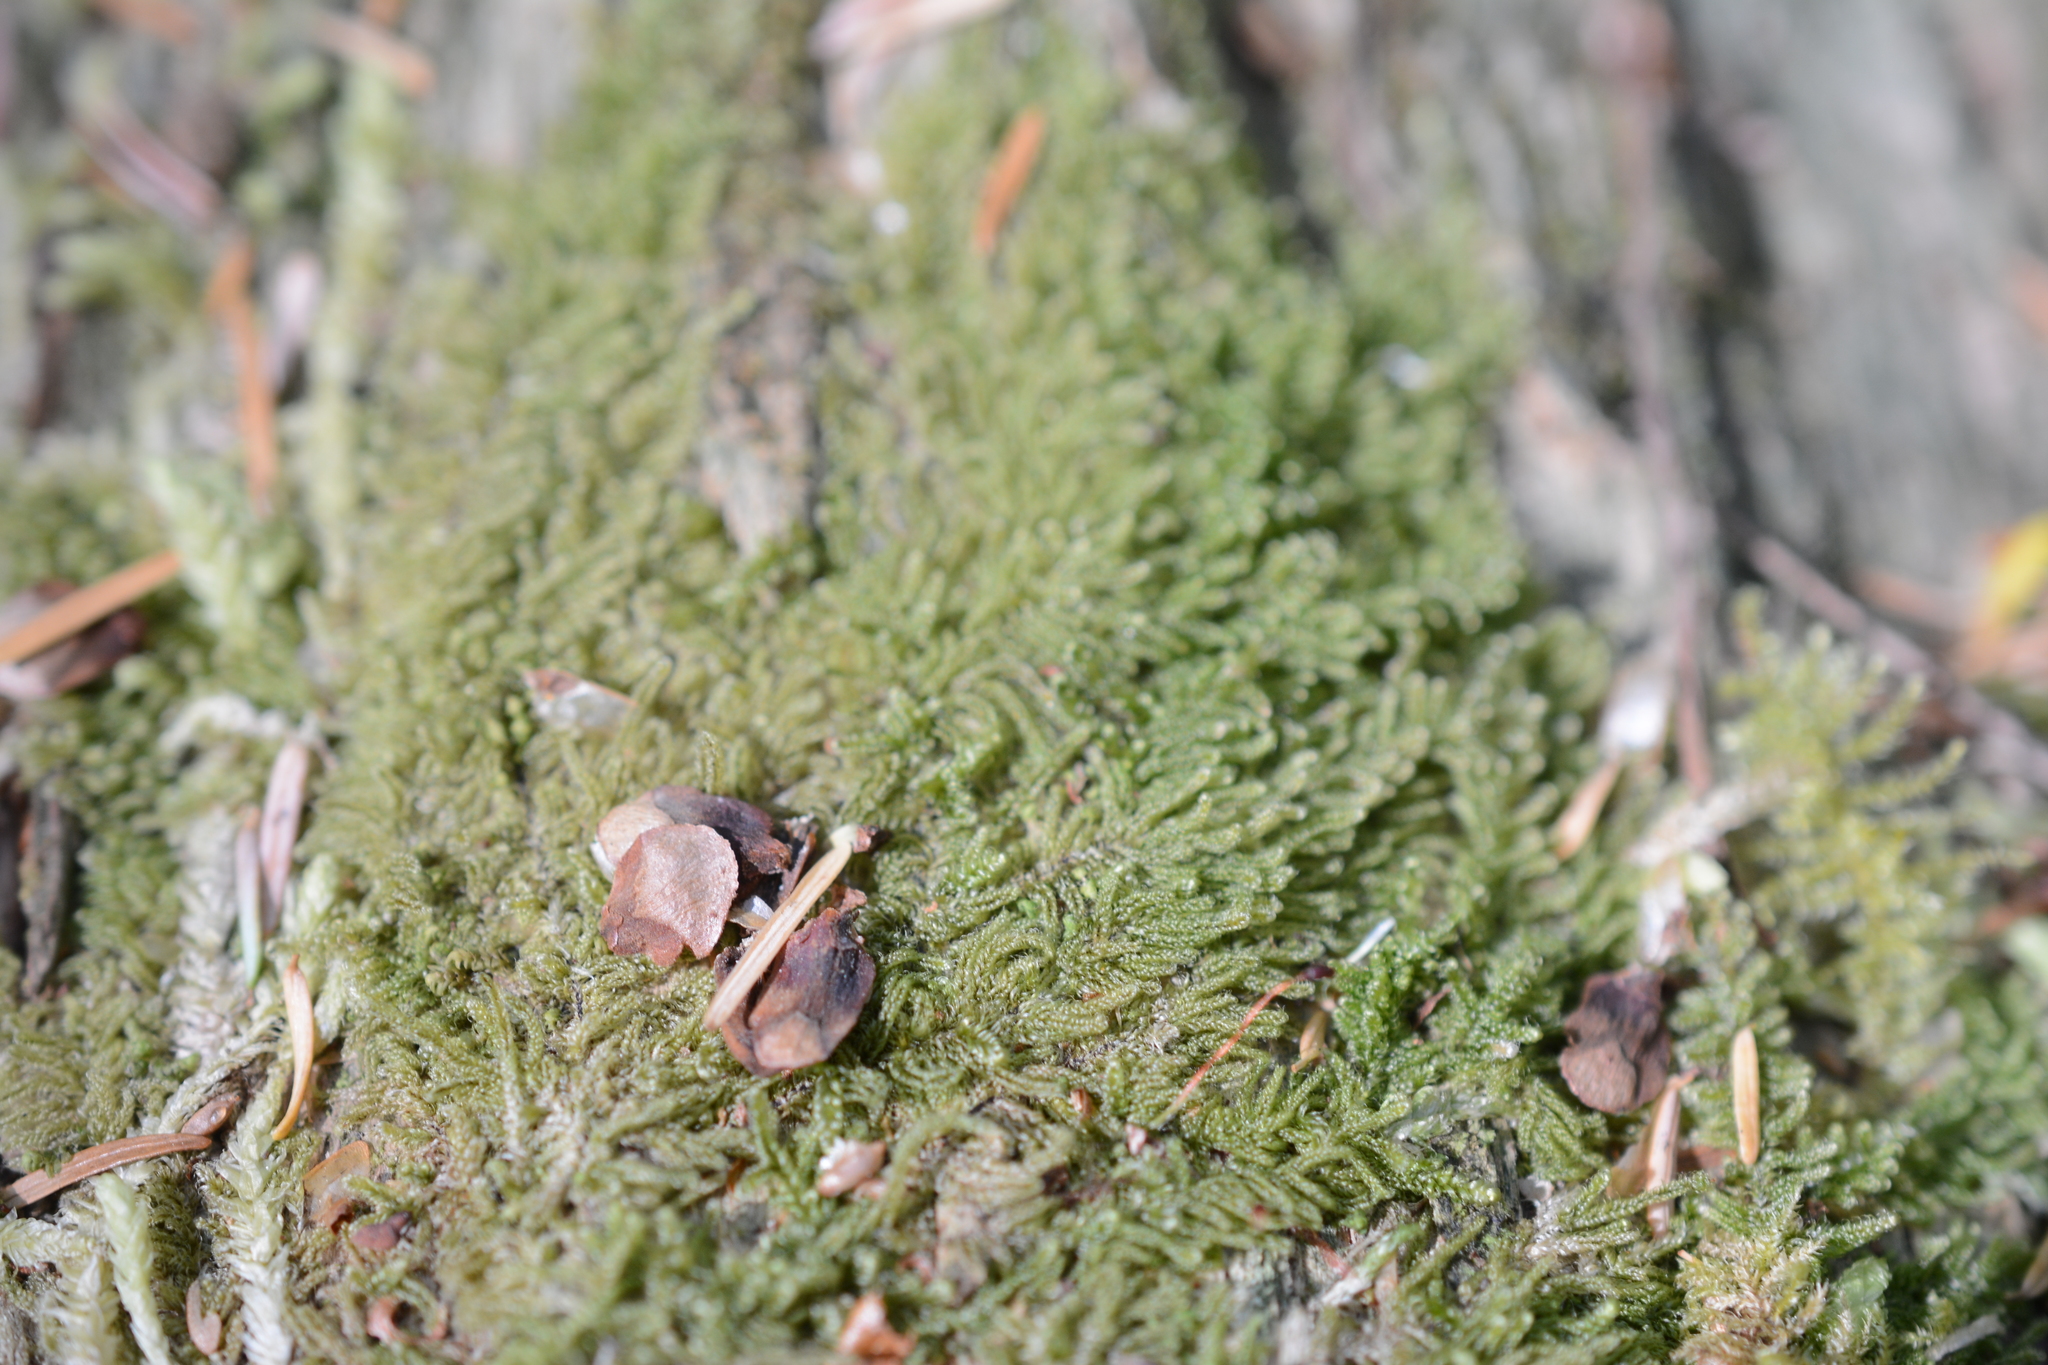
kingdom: Plantae
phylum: Bryophyta
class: Bryopsida
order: Hypnales
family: Pylaisiadelphaceae
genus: Trochophyllohypnum
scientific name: Trochophyllohypnum circinale
